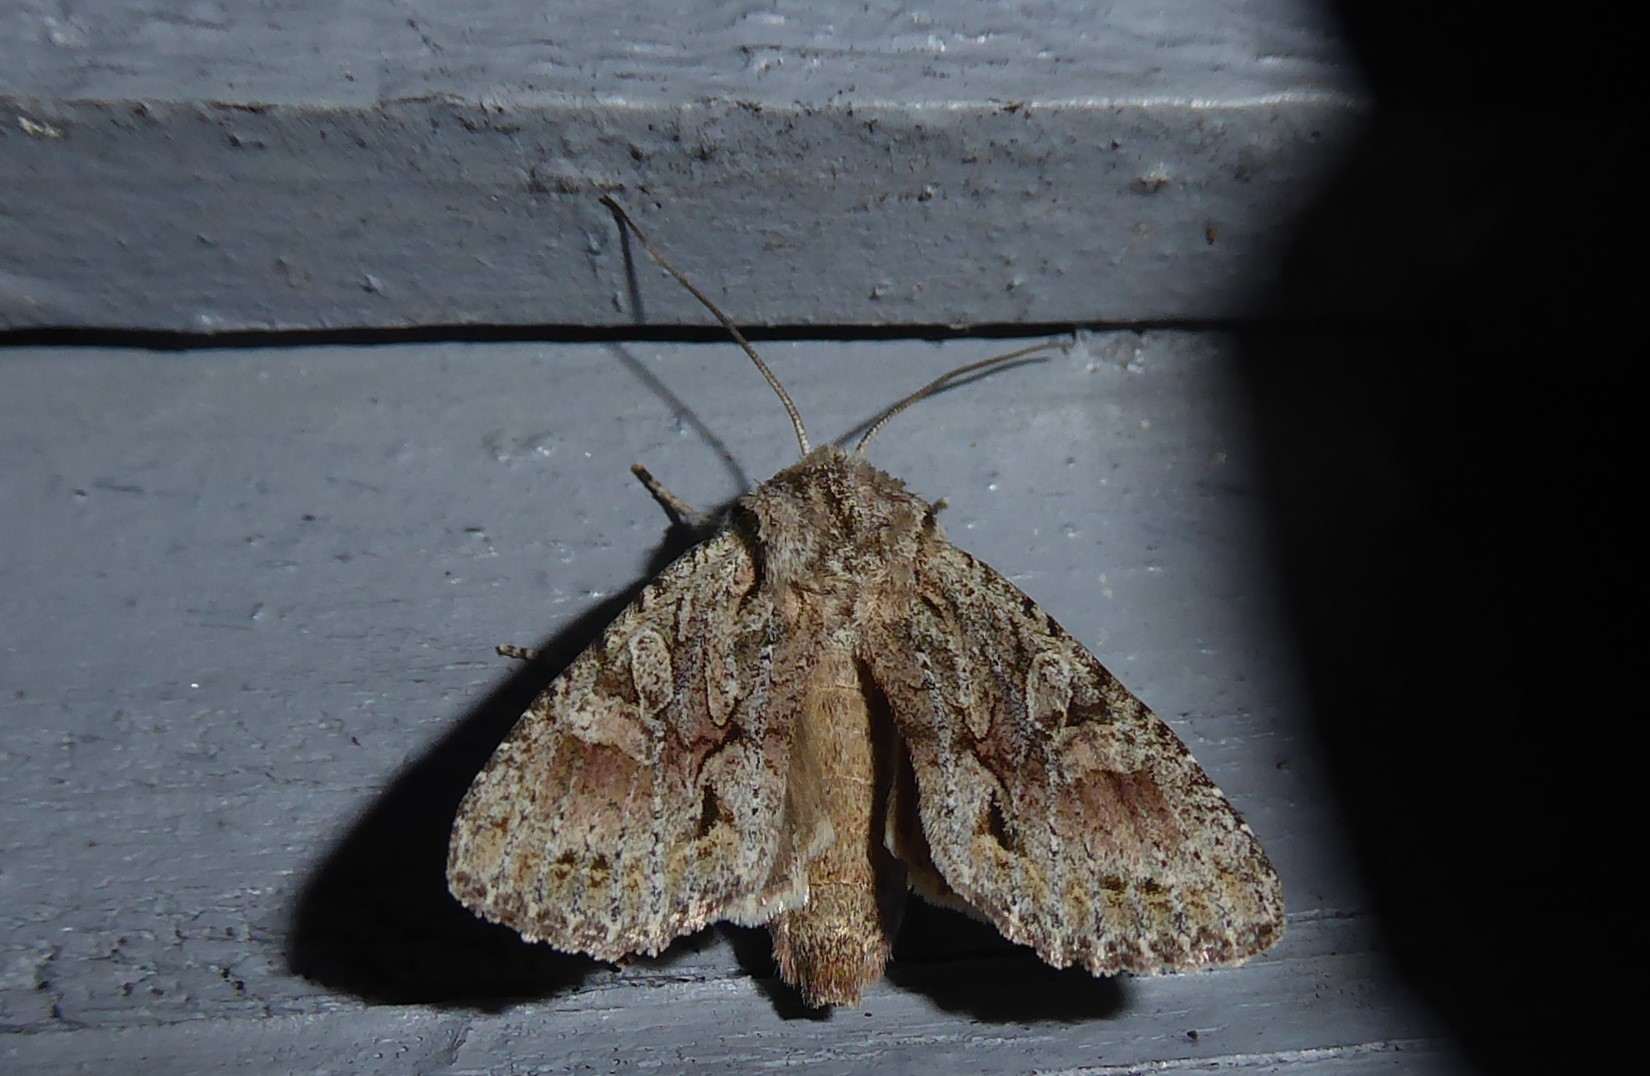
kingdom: Animalia
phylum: Arthropoda
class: Insecta
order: Lepidoptera
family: Noctuidae
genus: Ichneutica
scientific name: Ichneutica mutans
